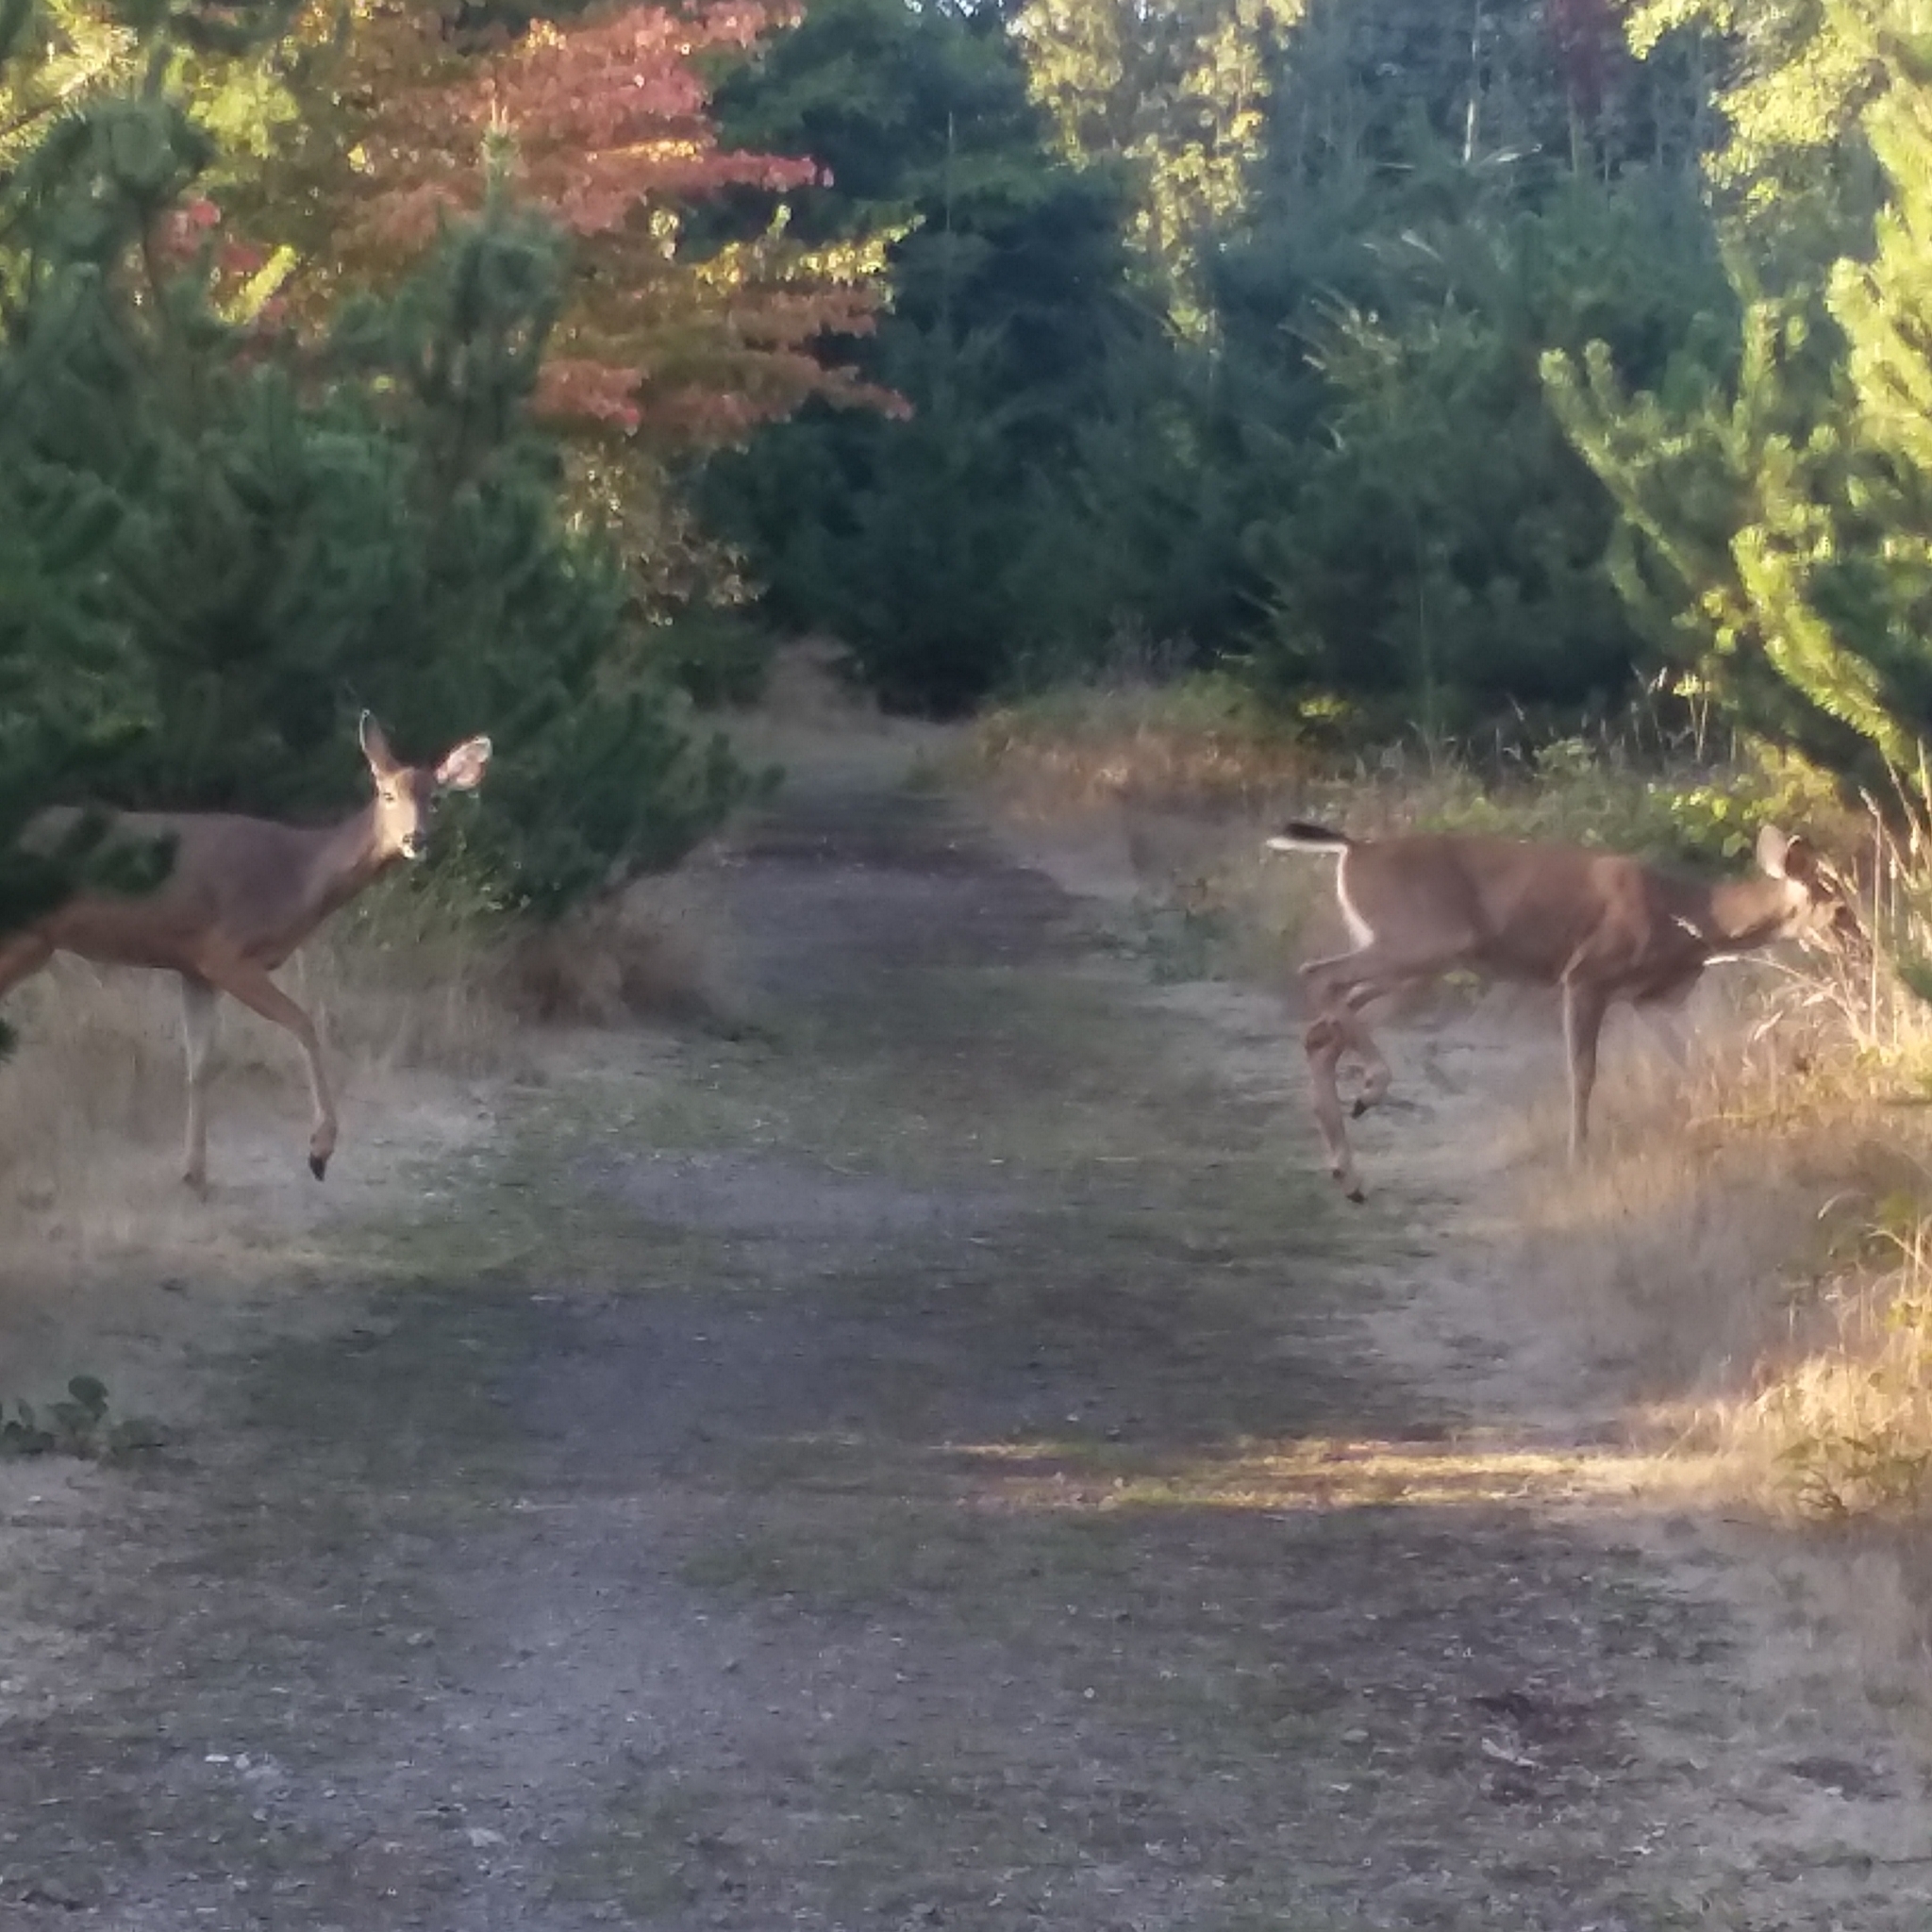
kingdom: Animalia
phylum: Chordata
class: Mammalia
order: Artiodactyla
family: Cervidae
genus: Odocoileus
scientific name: Odocoileus hemionus
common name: Mule deer
